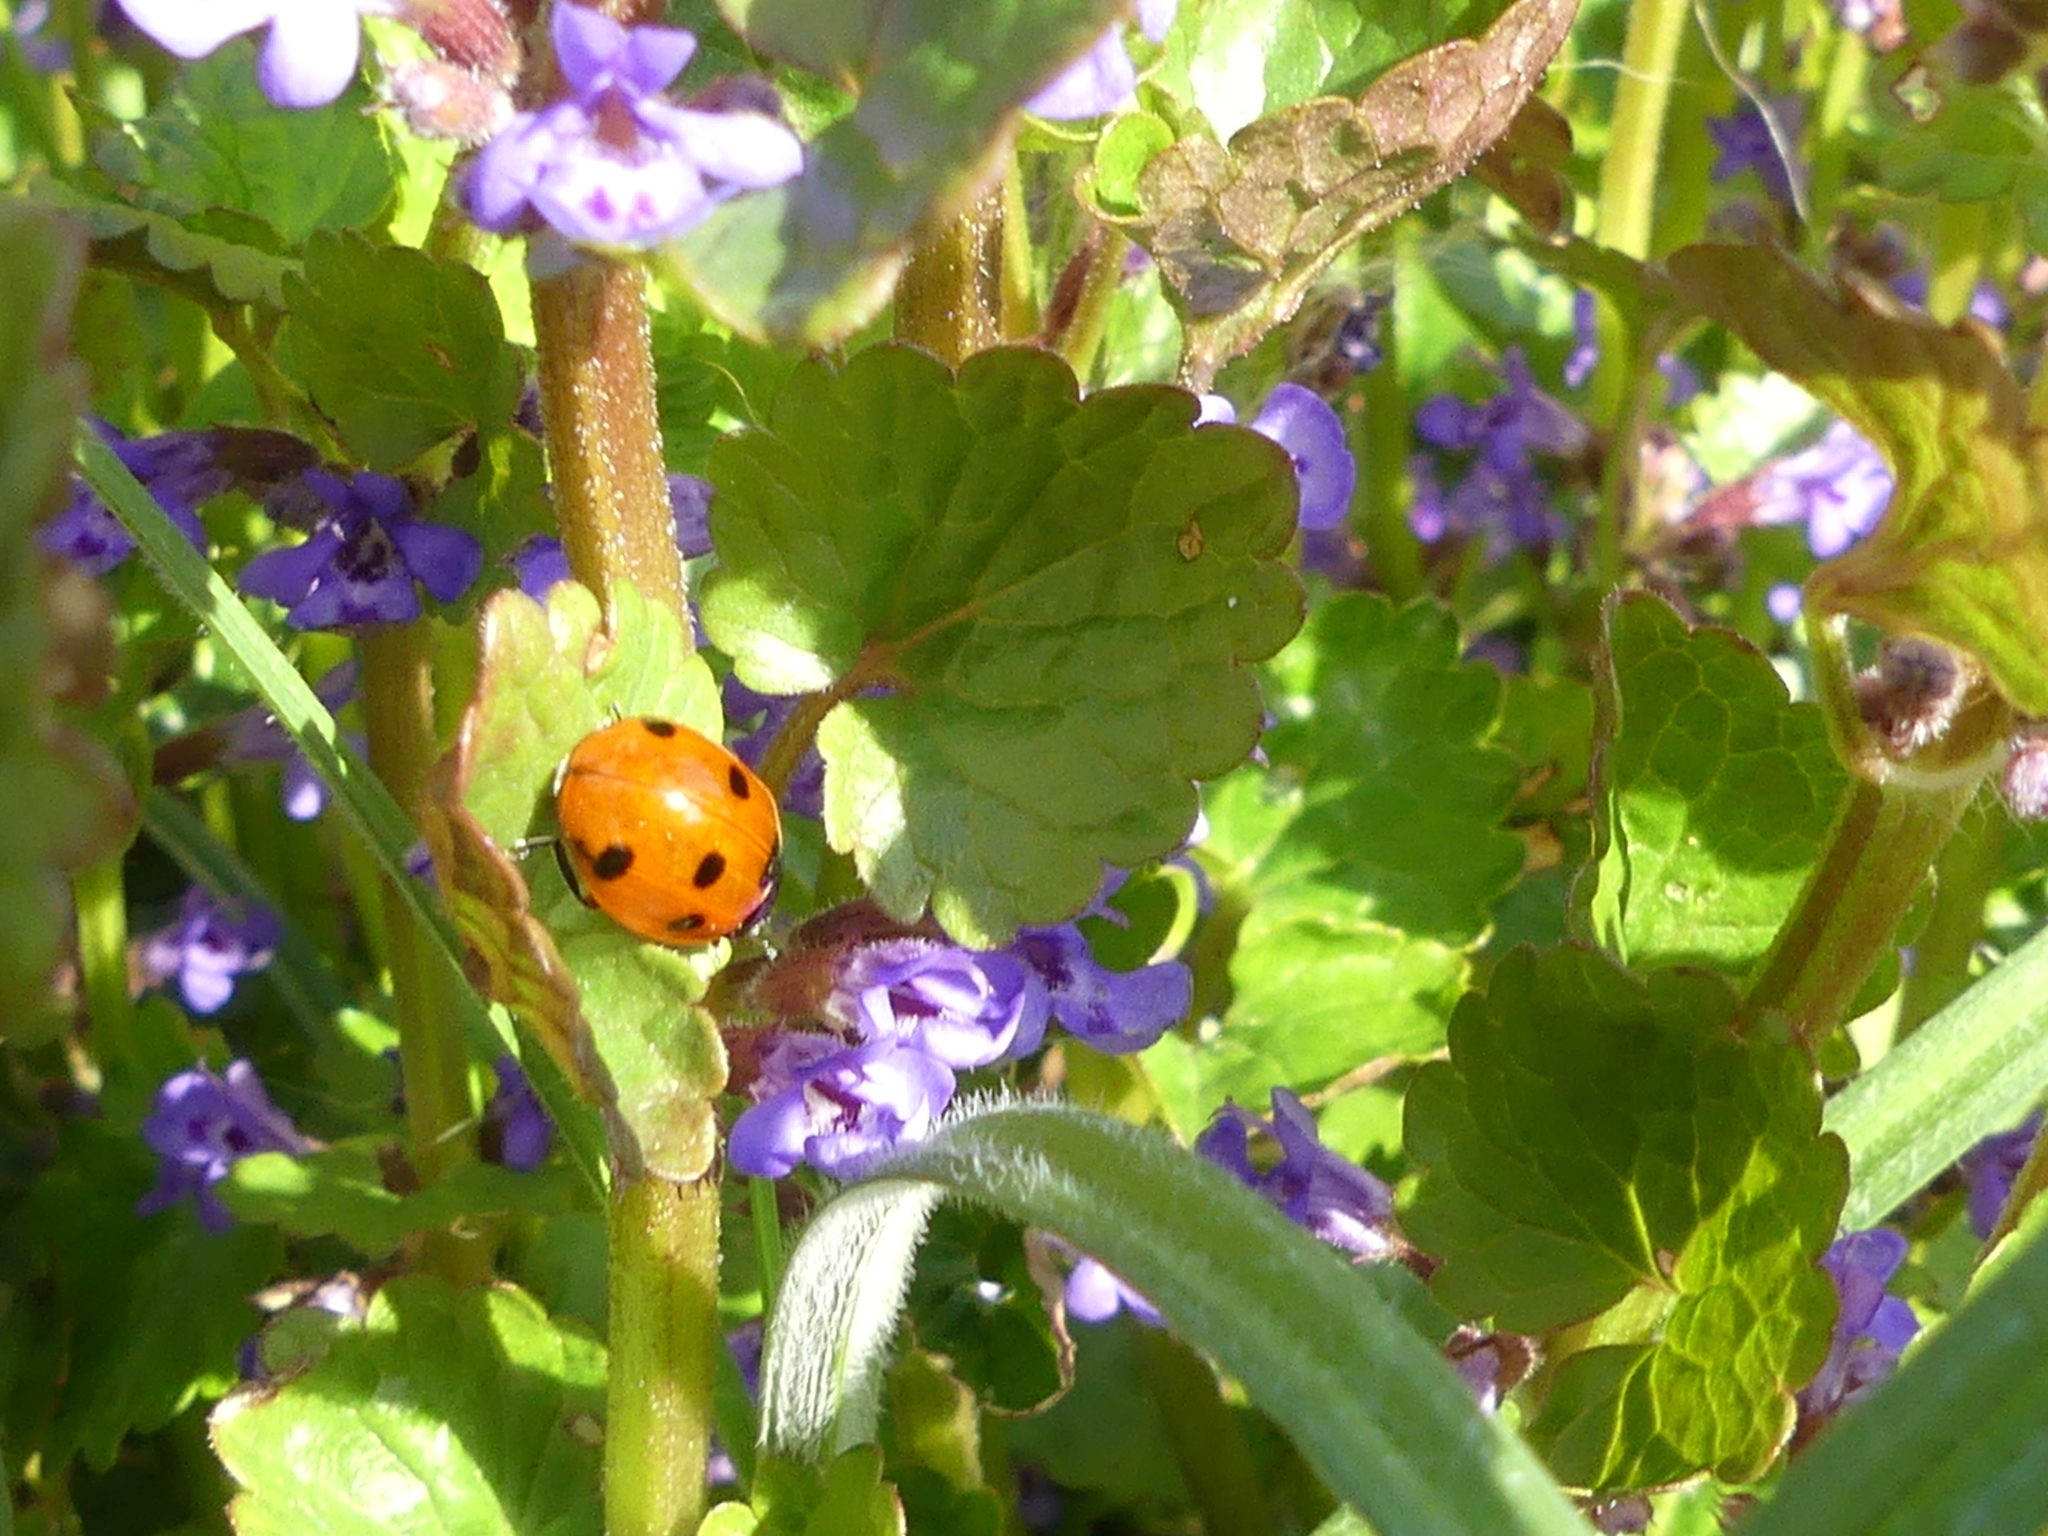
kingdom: Animalia
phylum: Arthropoda
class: Insecta
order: Coleoptera
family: Coccinellidae
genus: Coccinella
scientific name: Coccinella septempunctata
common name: Sevenspotted lady beetle
